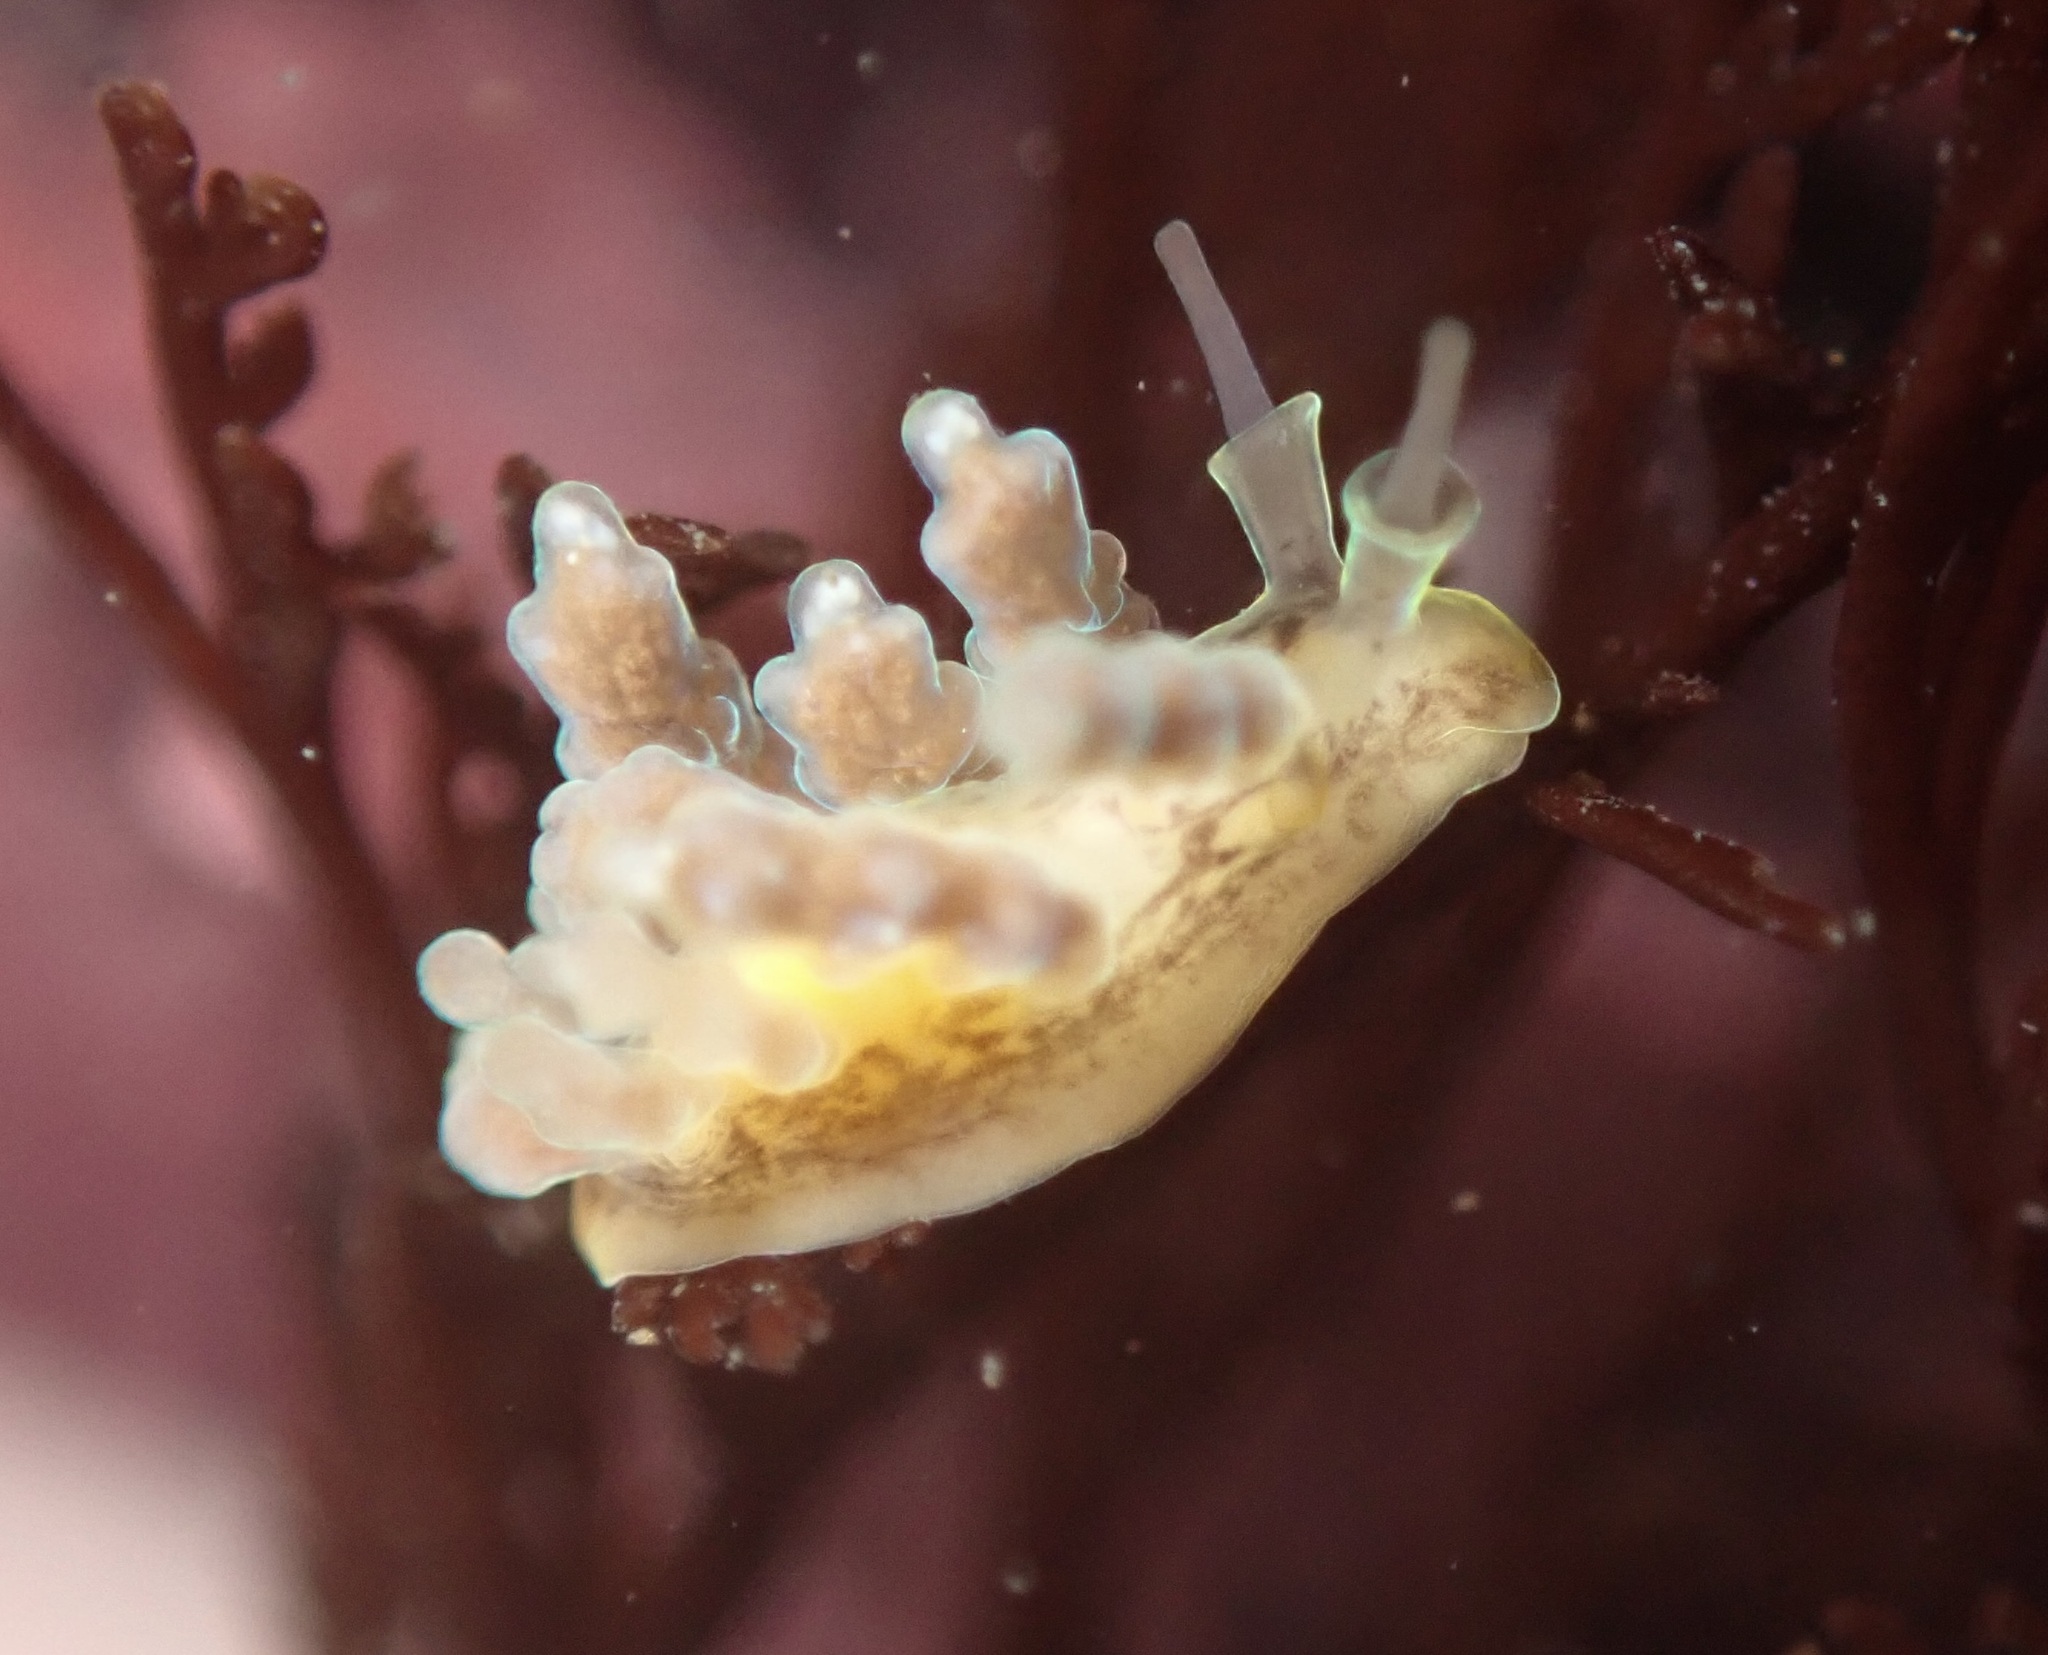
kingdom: Animalia
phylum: Mollusca
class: Gastropoda
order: Nudibranchia
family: Dotidae
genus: Doto
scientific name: Doto columbiana
